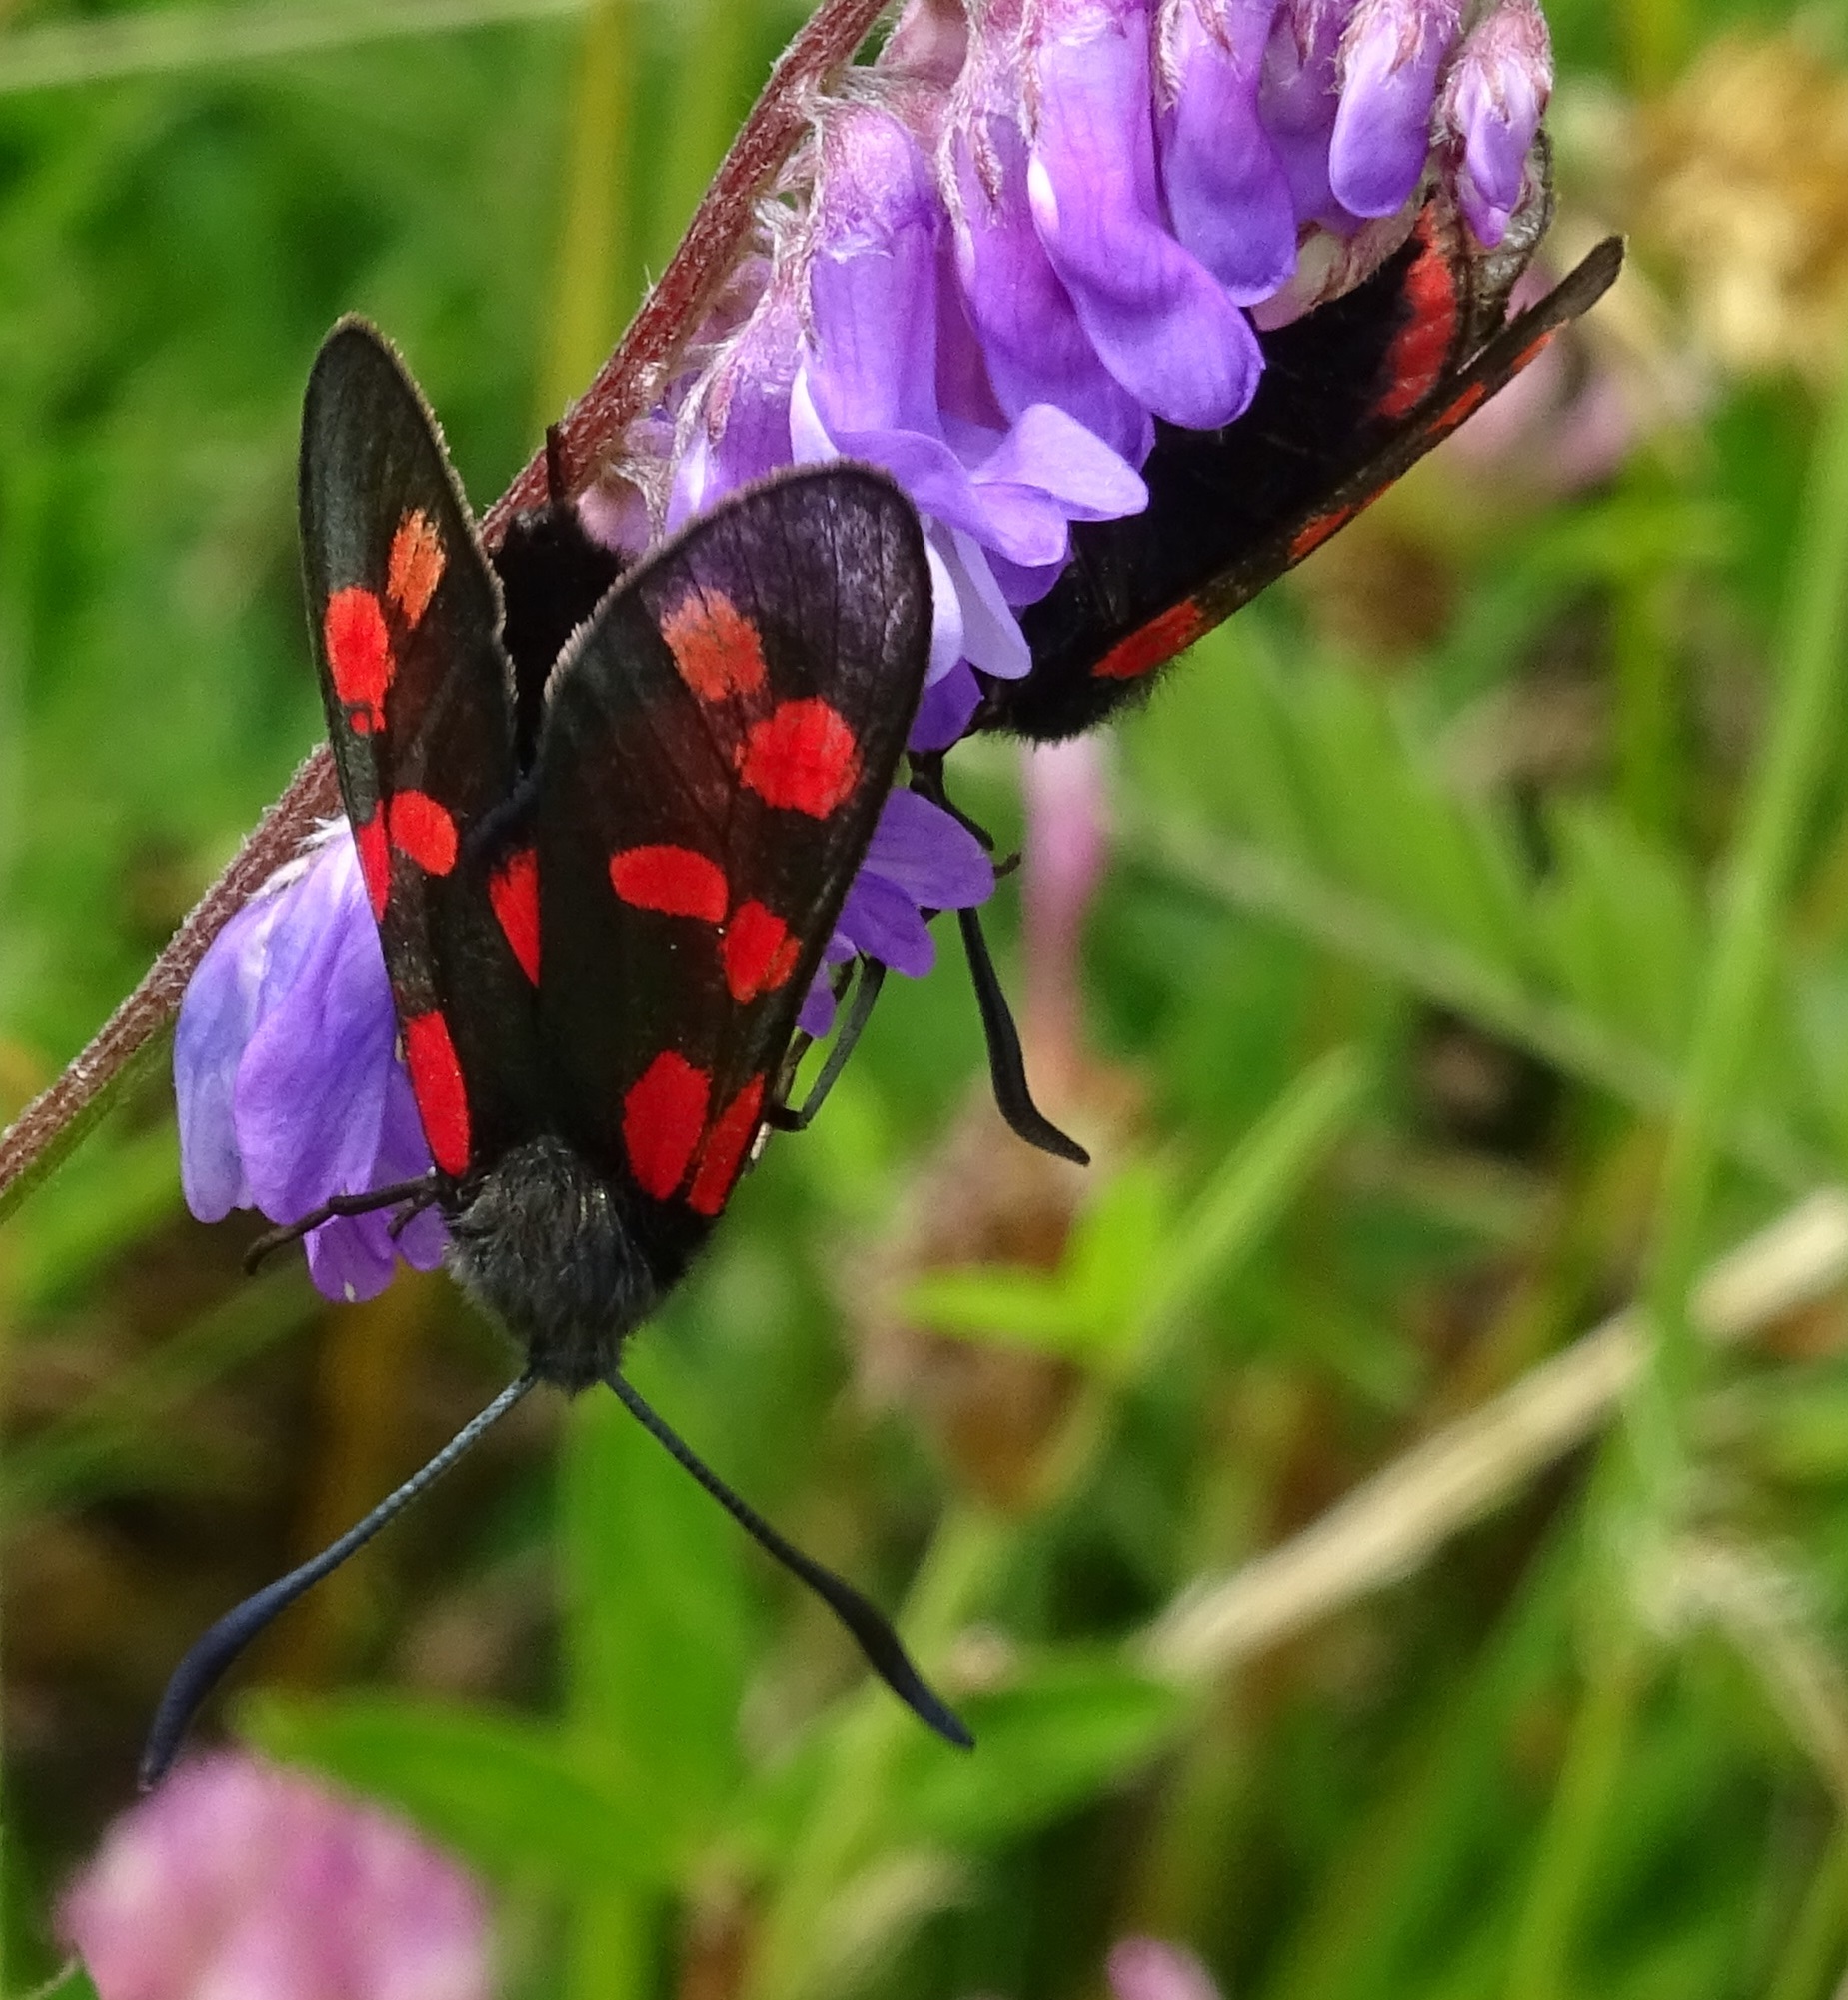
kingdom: Animalia
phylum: Arthropoda
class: Insecta
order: Lepidoptera
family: Zygaenidae
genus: Zygaena
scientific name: Zygaena filipendulae
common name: Six-spot burnet
